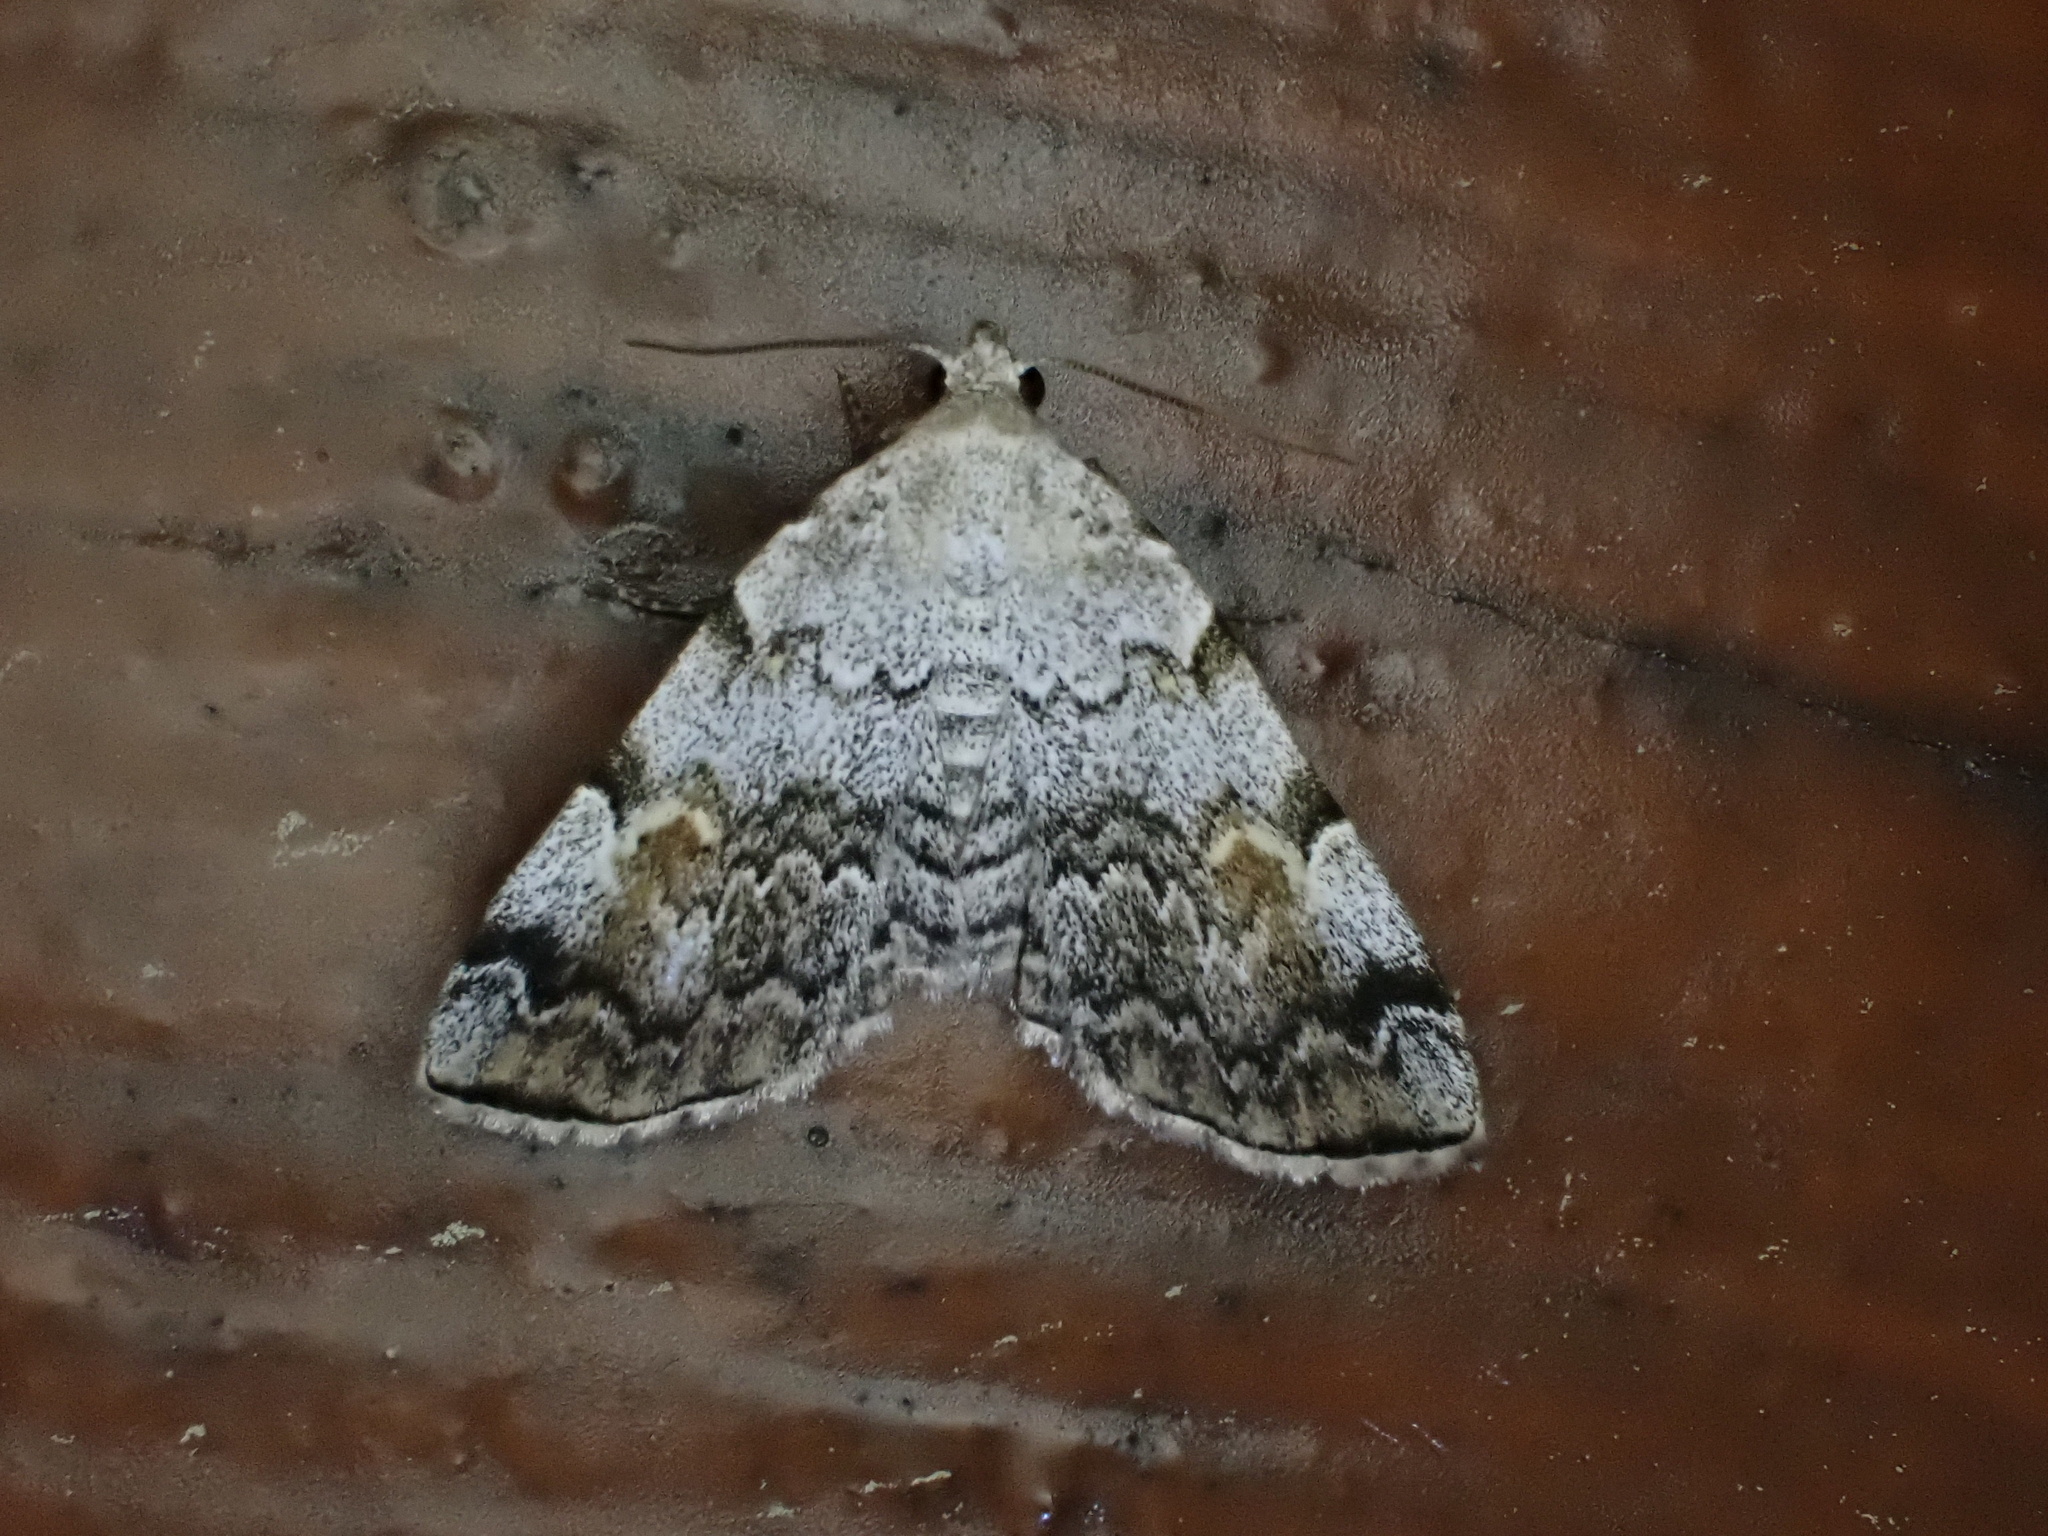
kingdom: Animalia
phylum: Arthropoda
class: Insecta
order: Lepidoptera
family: Erebidae
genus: Idia
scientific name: Idia americalis
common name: American idia moth
